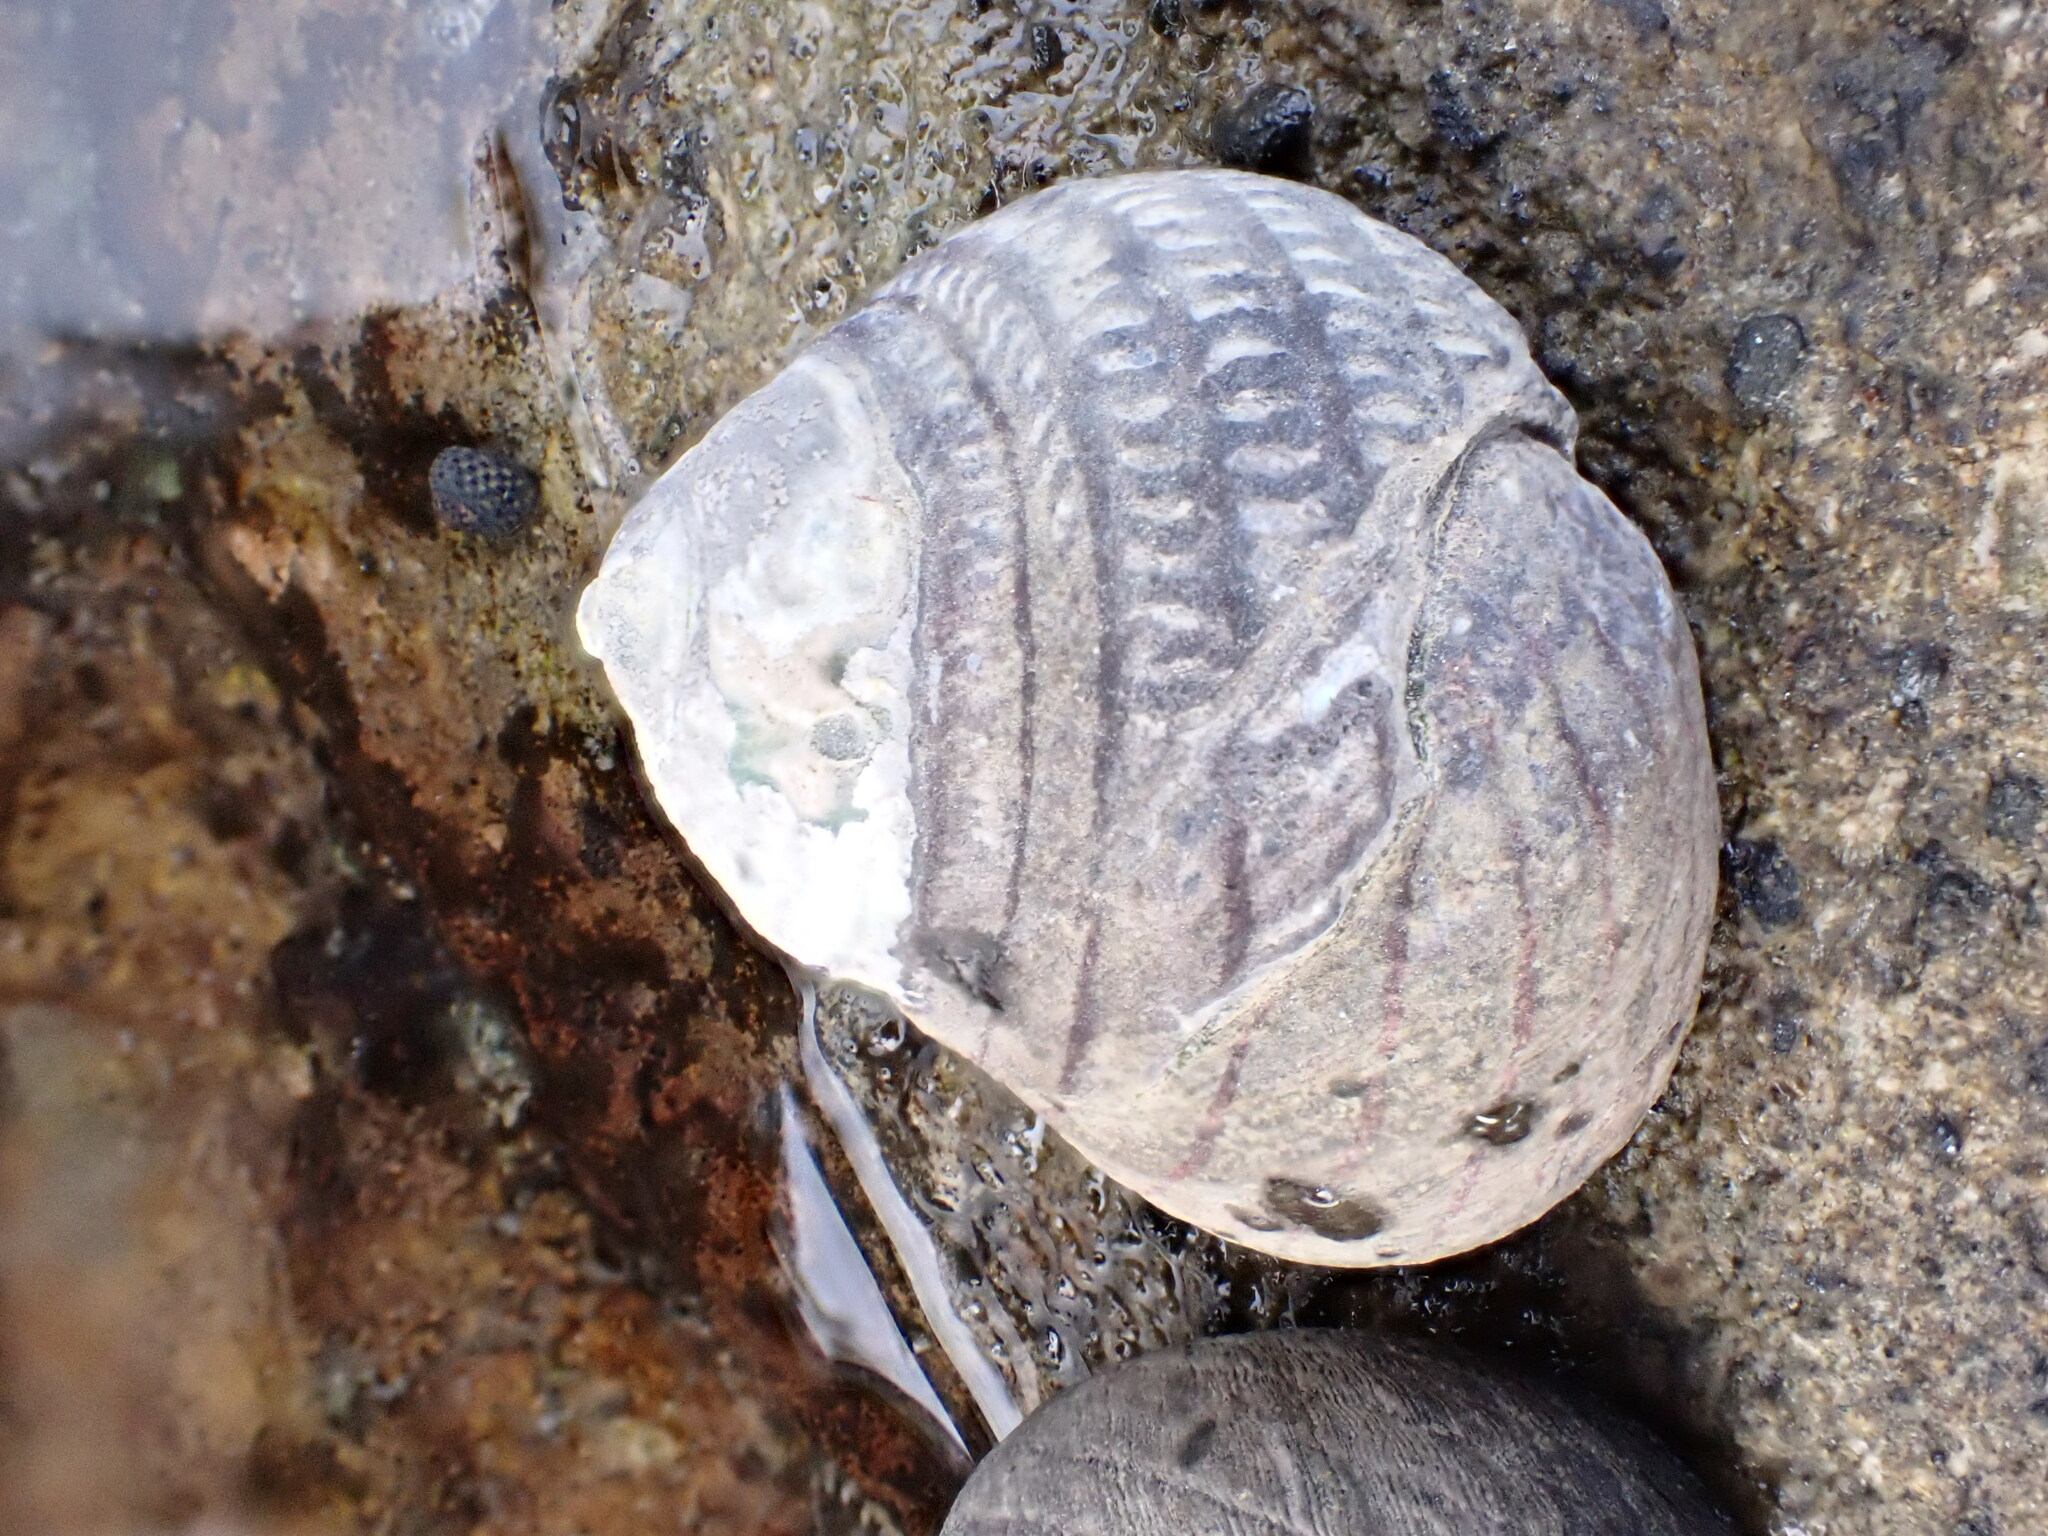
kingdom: Animalia
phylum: Mollusca
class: Gastropoda
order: Trochida
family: Trochidae
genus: Diloma
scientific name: Diloma aethiops
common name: Scorched monodont
